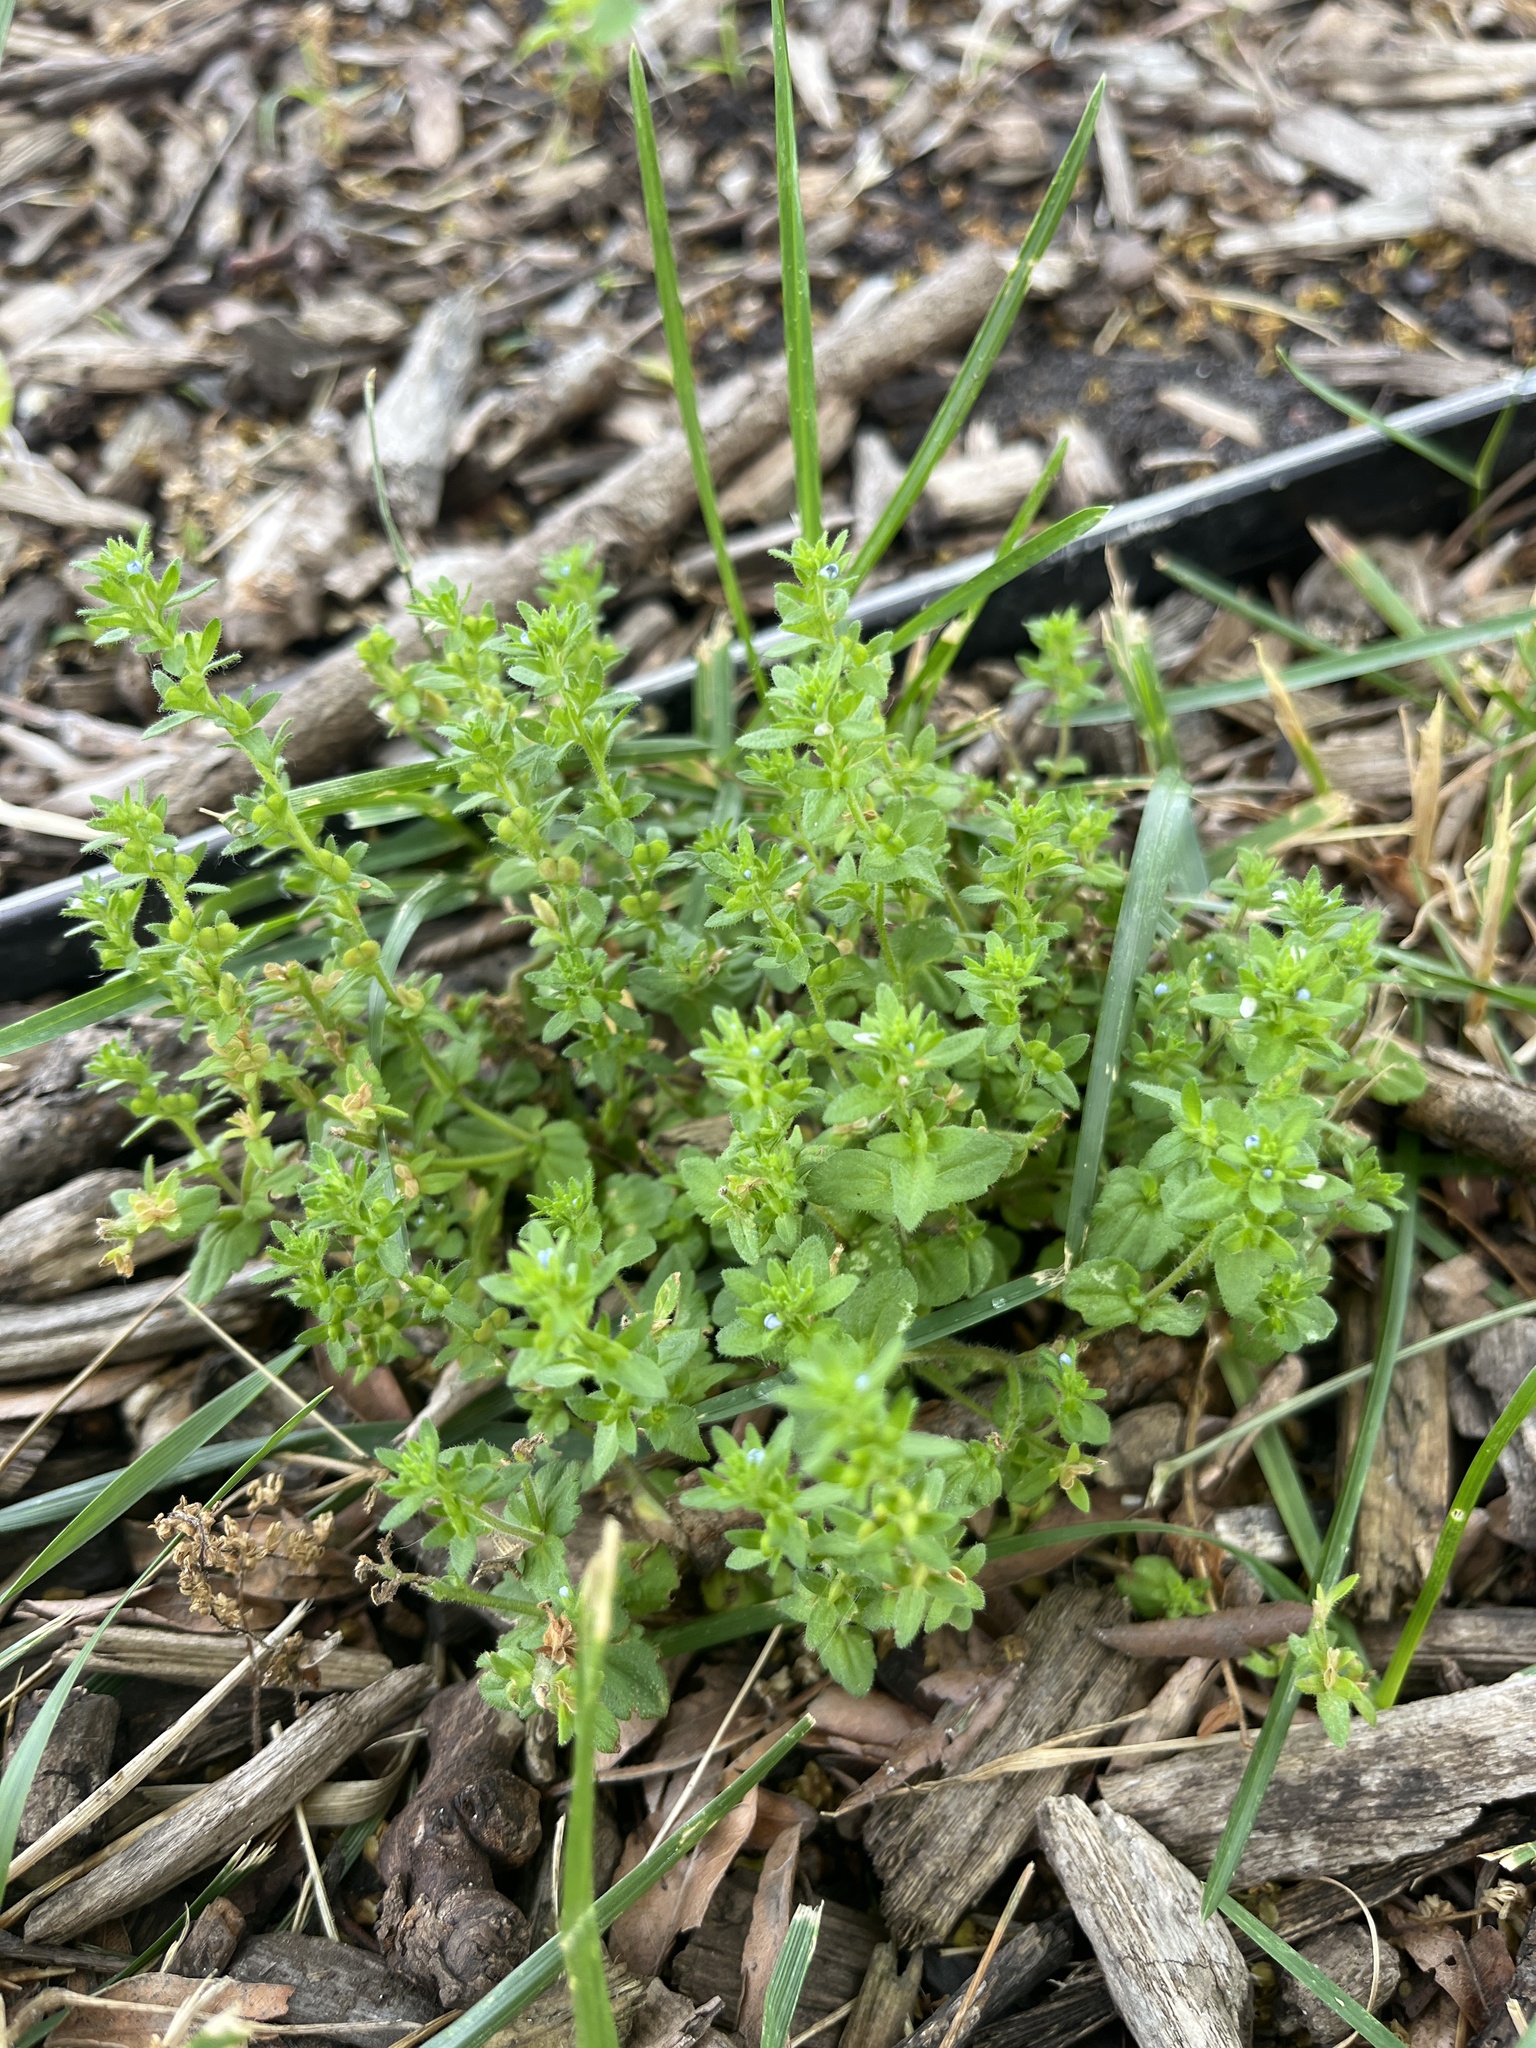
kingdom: Plantae
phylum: Tracheophyta
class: Magnoliopsida
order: Lamiales
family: Plantaginaceae
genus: Veronica
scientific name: Veronica arvensis
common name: Corn speedwell
